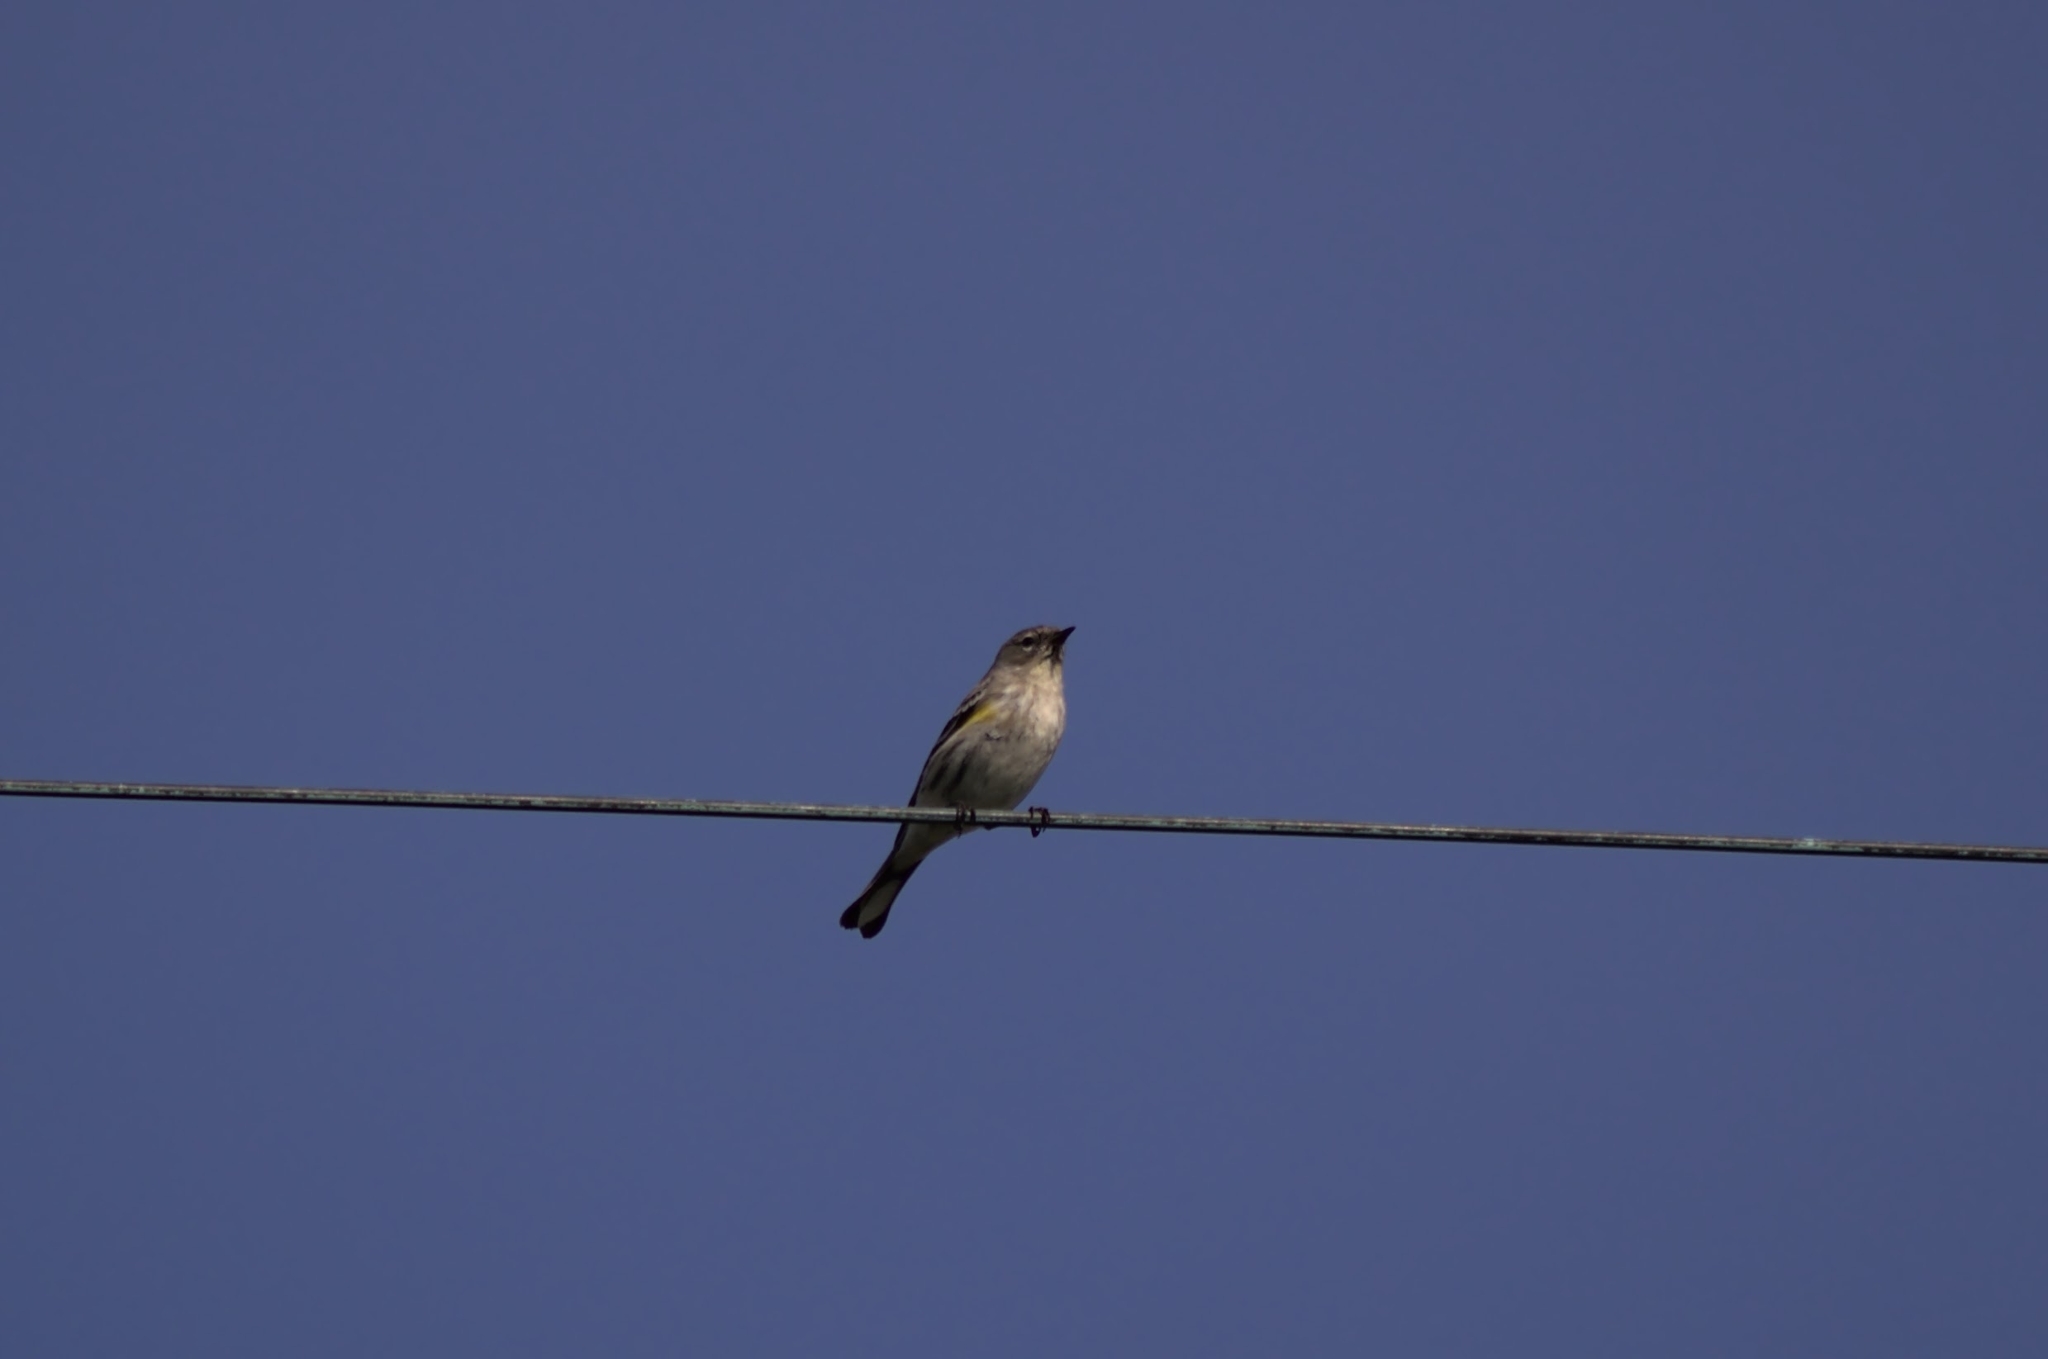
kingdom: Animalia
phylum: Chordata
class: Aves
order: Passeriformes
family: Parulidae
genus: Setophaga
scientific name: Setophaga coronata
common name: Myrtle warbler
